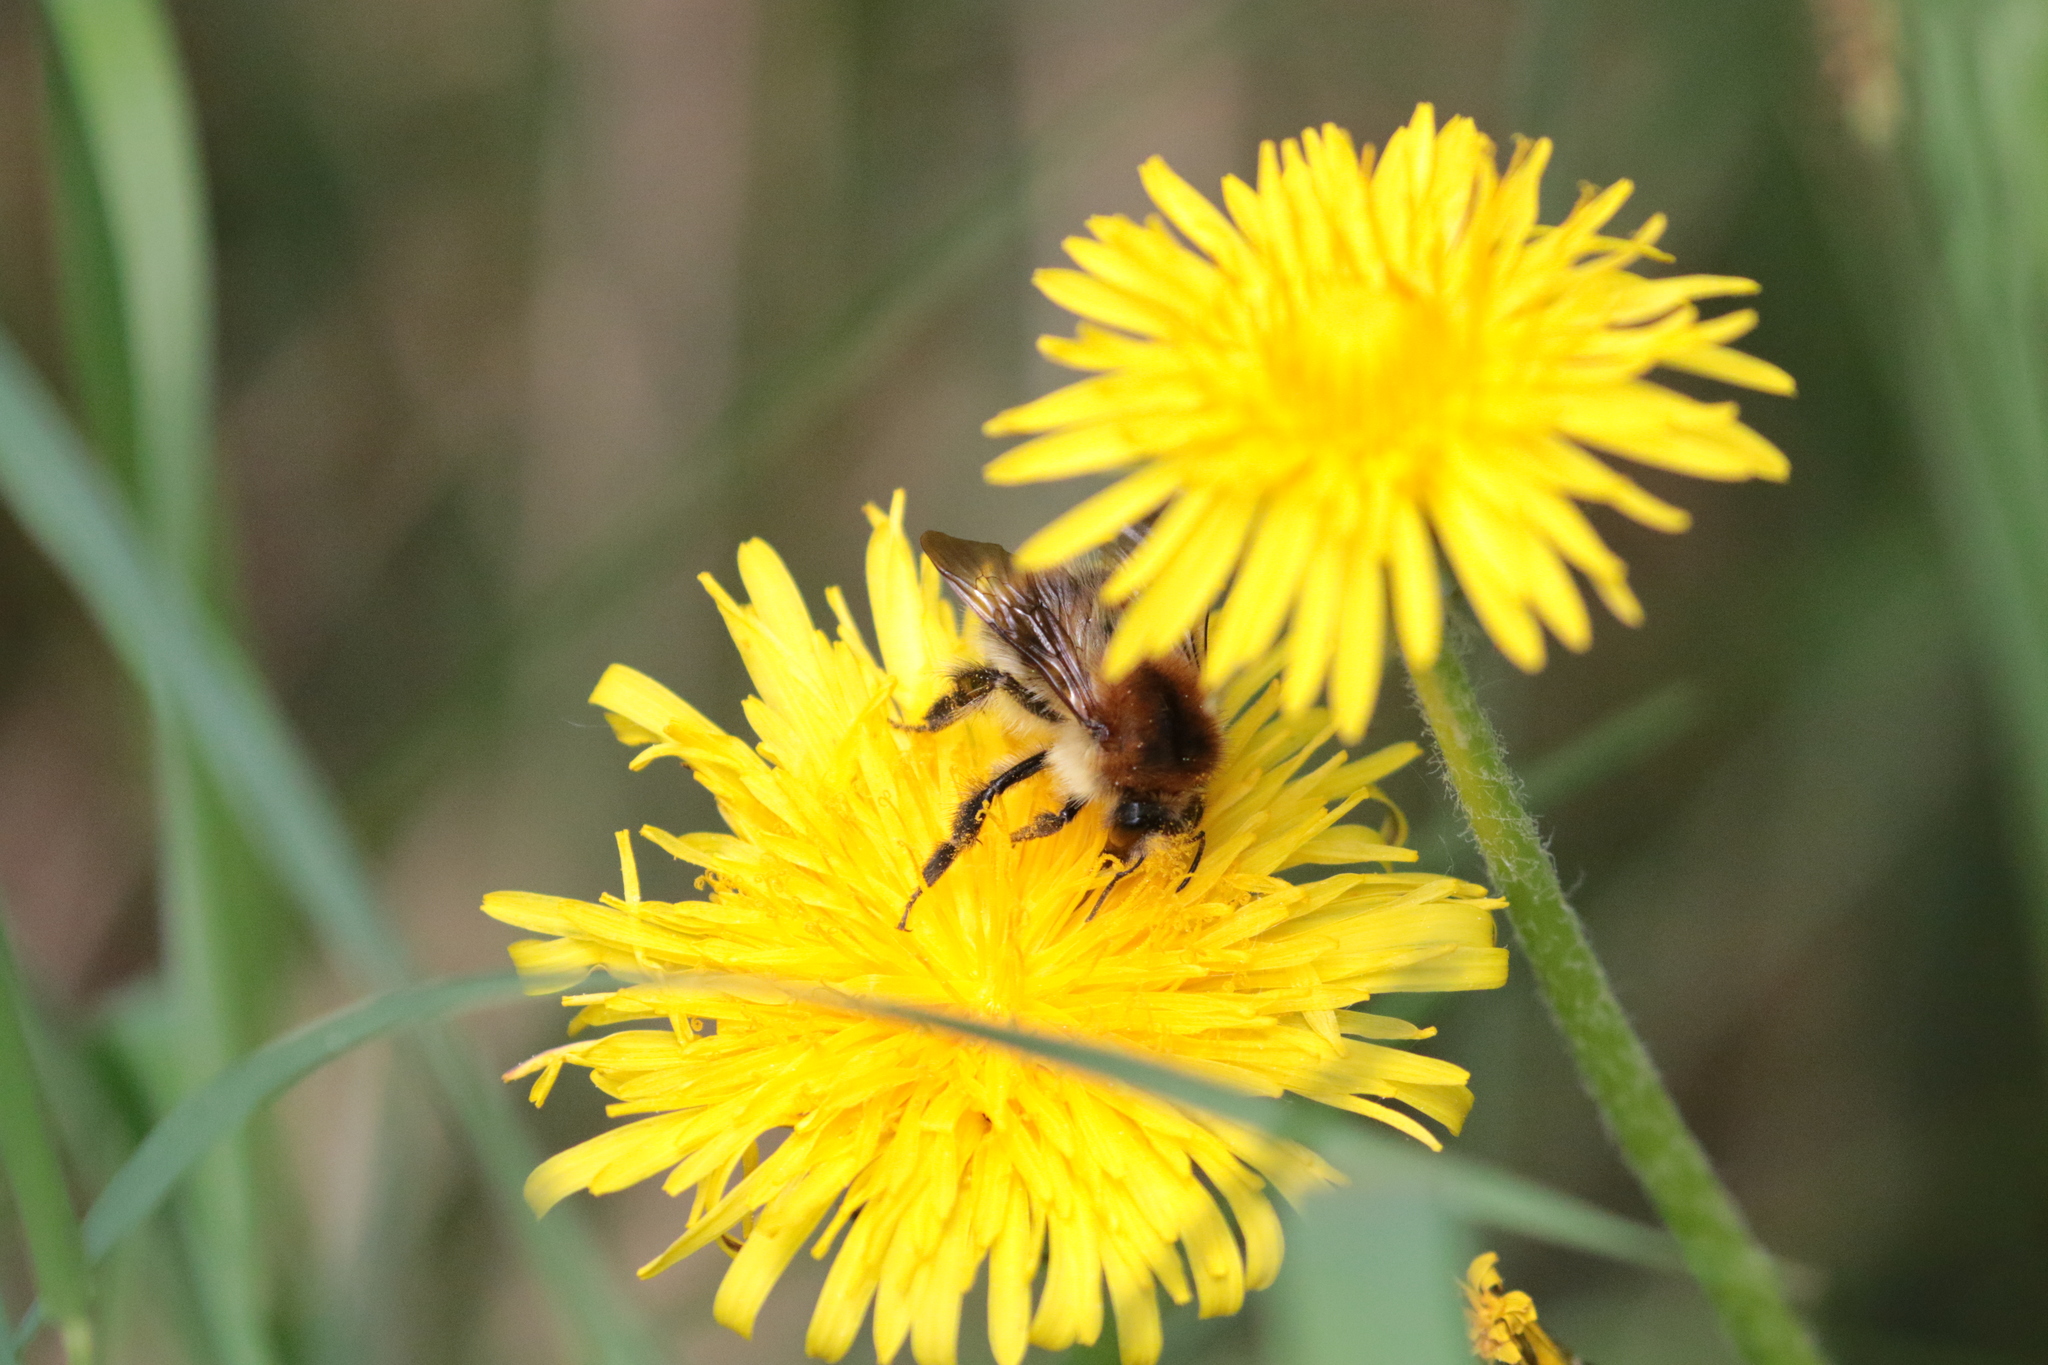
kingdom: Animalia
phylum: Arthropoda
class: Insecta
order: Hymenoptera
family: Apidae
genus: Bombus
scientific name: Bombus pascuorum
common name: Common carder bee
